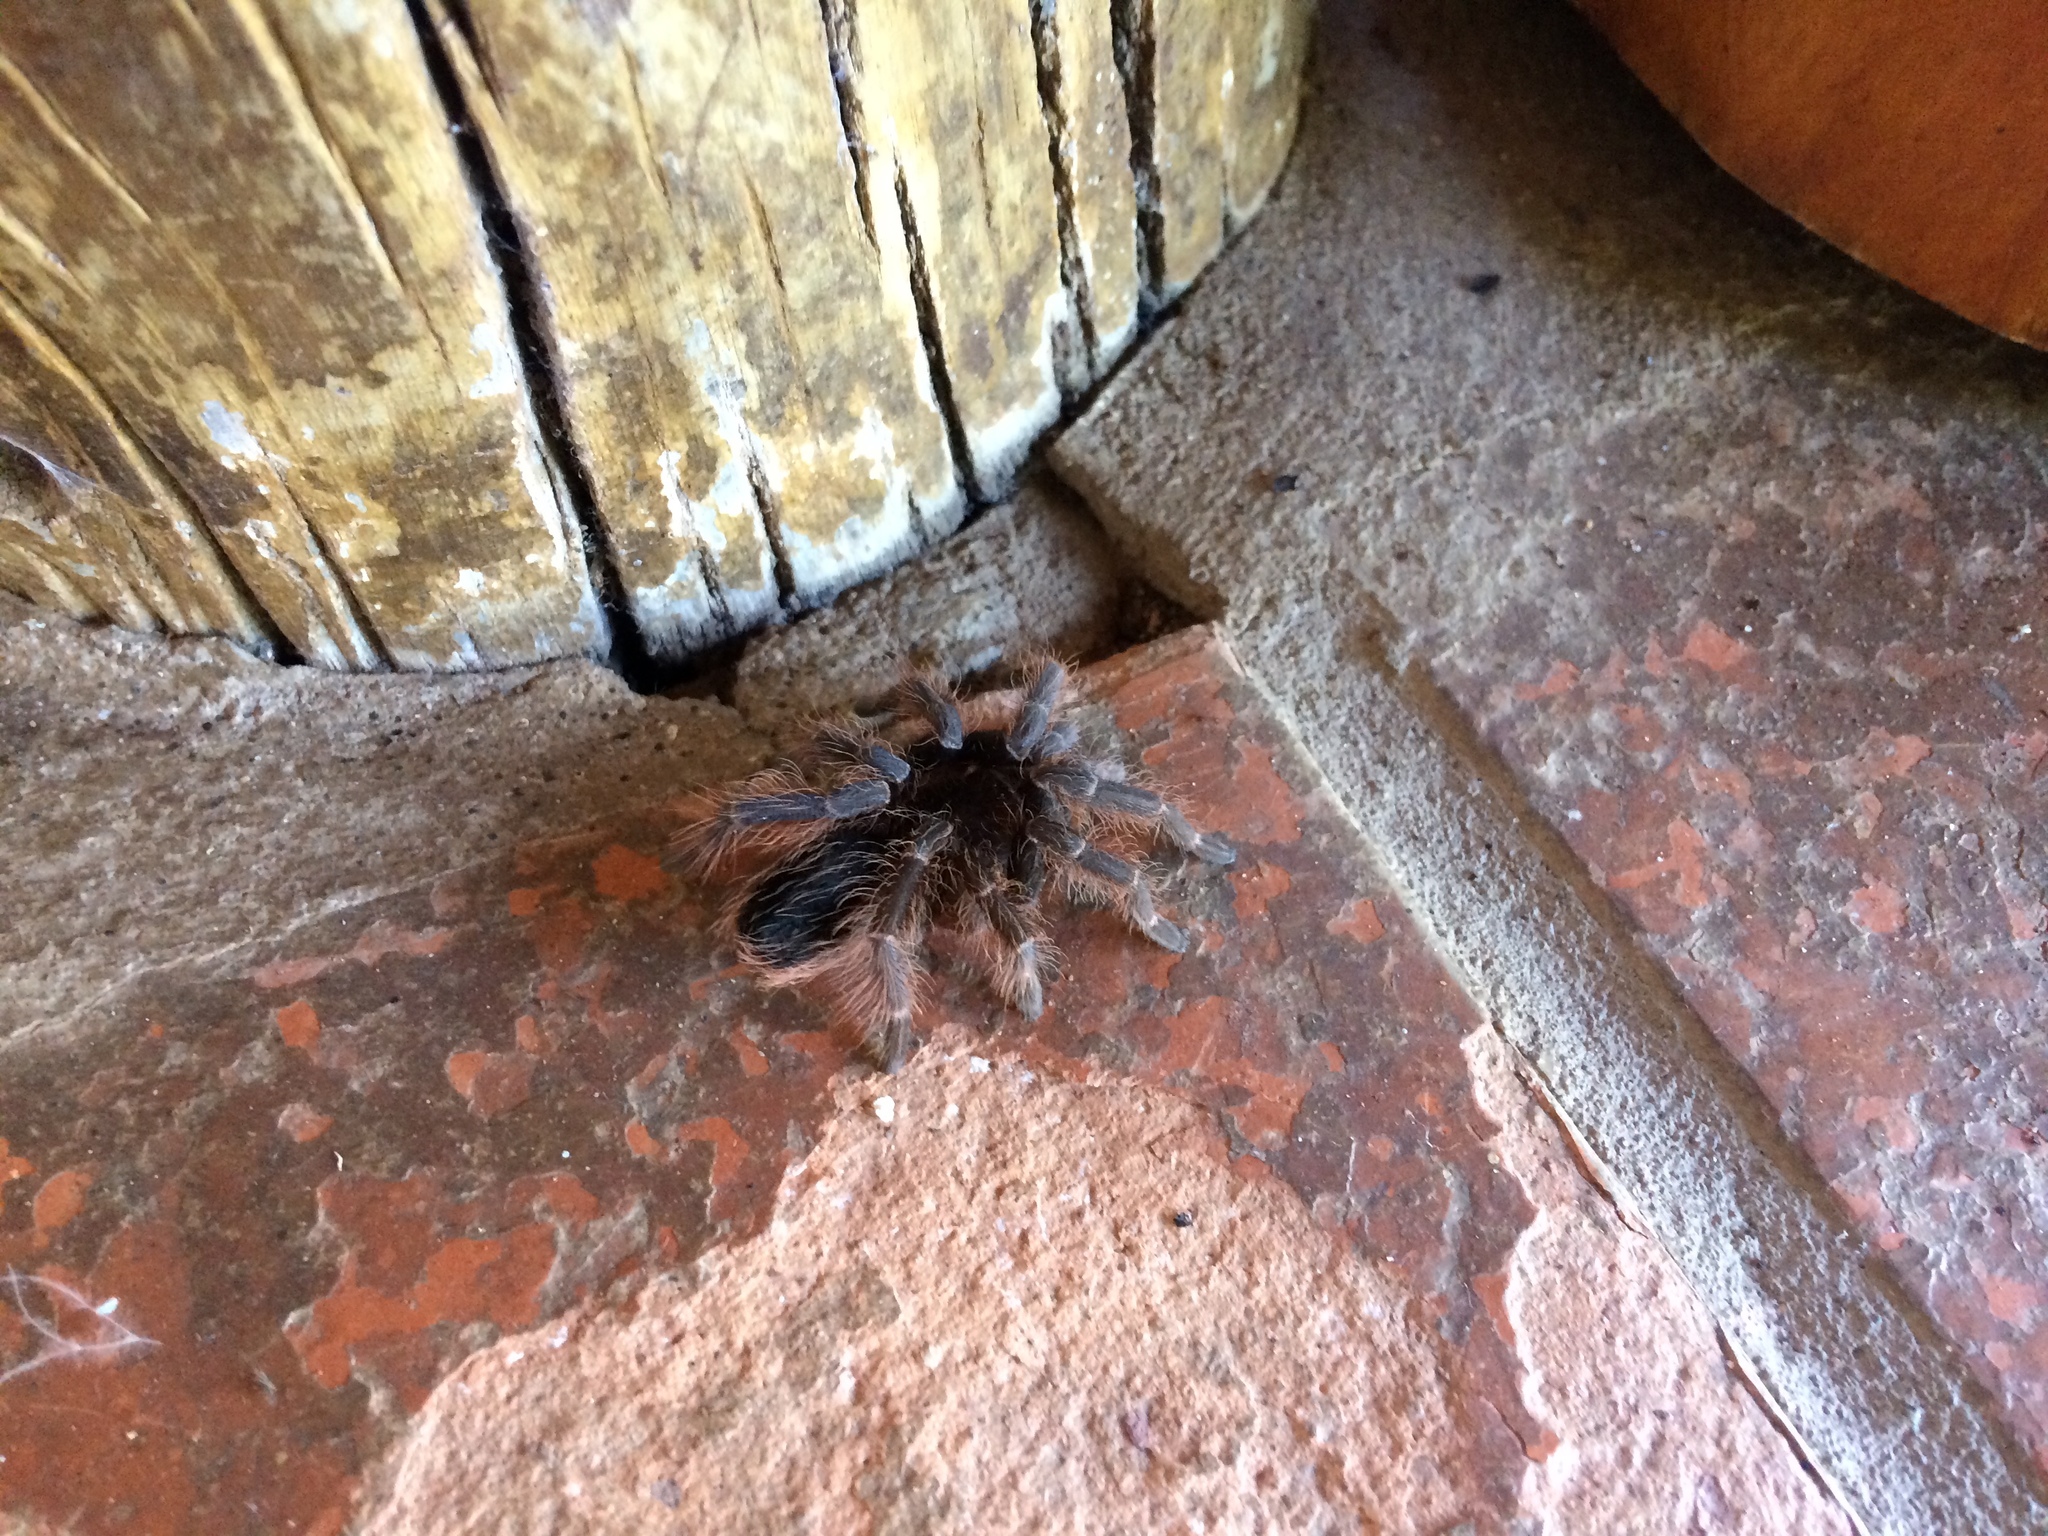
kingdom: Animalia
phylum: Arthropoda
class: Arachnida
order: Araneae
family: Theraphosidae
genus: Nhandu
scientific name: Nhandu carapoensis
